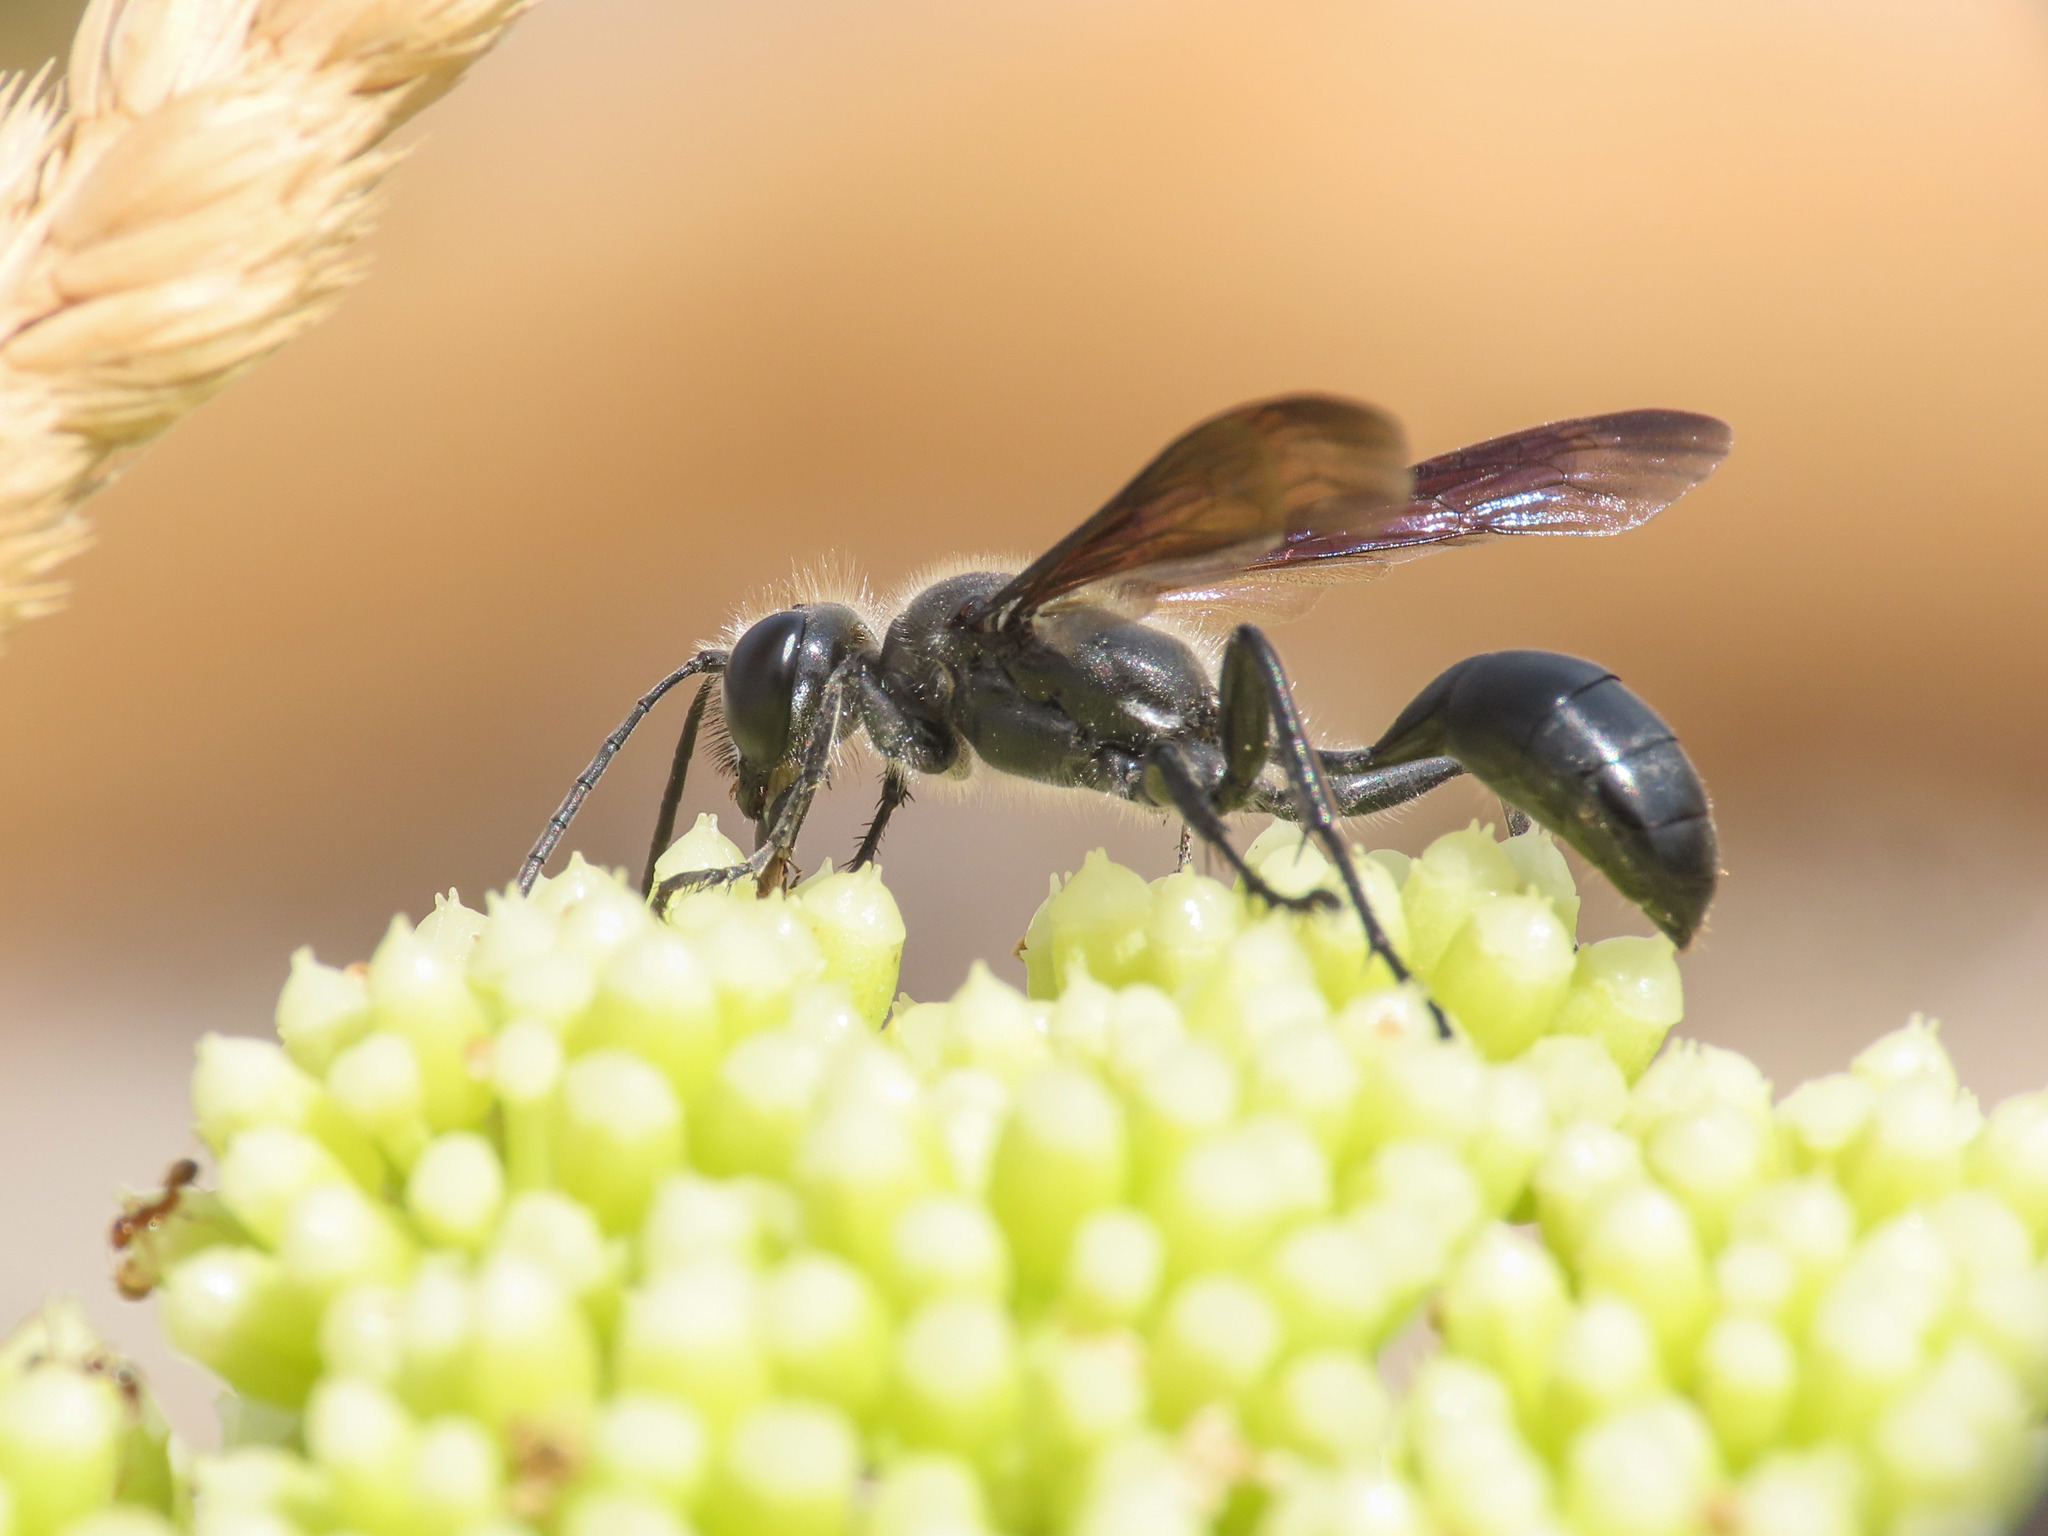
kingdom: Animalia
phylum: Arthropoda
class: Insecta
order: Hymenoptera
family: Sphecidae
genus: Isodontia
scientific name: Isodontia mexicana
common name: Mud dauber
